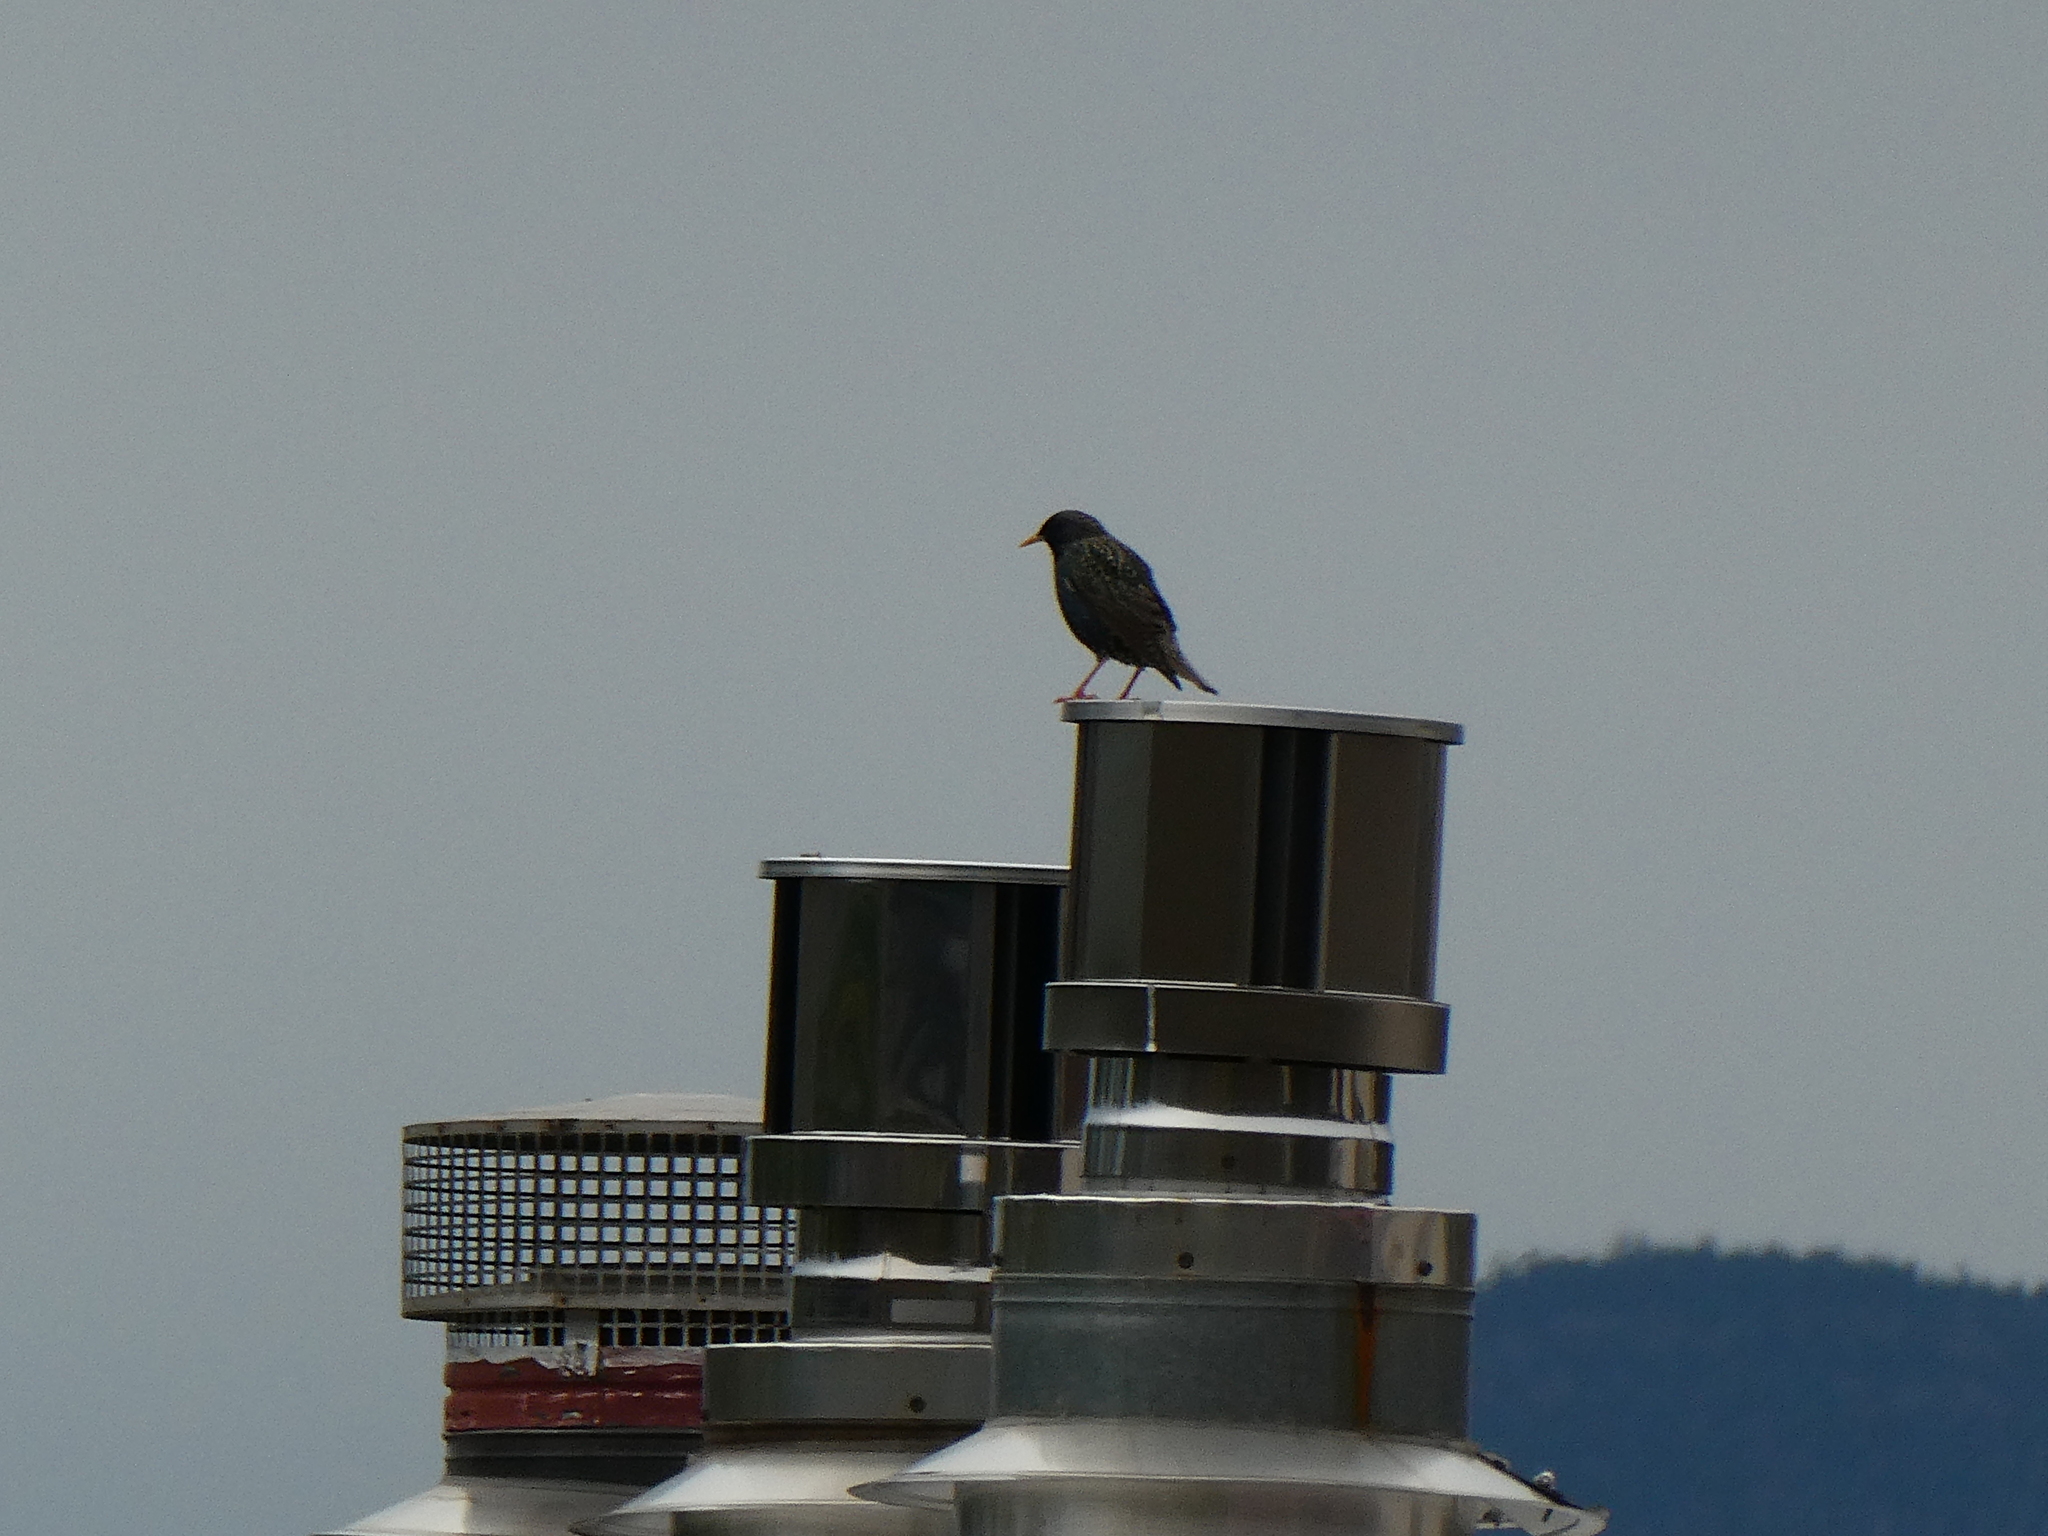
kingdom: Animalia
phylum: Chordata
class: Aves
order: Passeriformes
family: Sturnidae
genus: Sturnus
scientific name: Sturnus vulgaris
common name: Common starling
